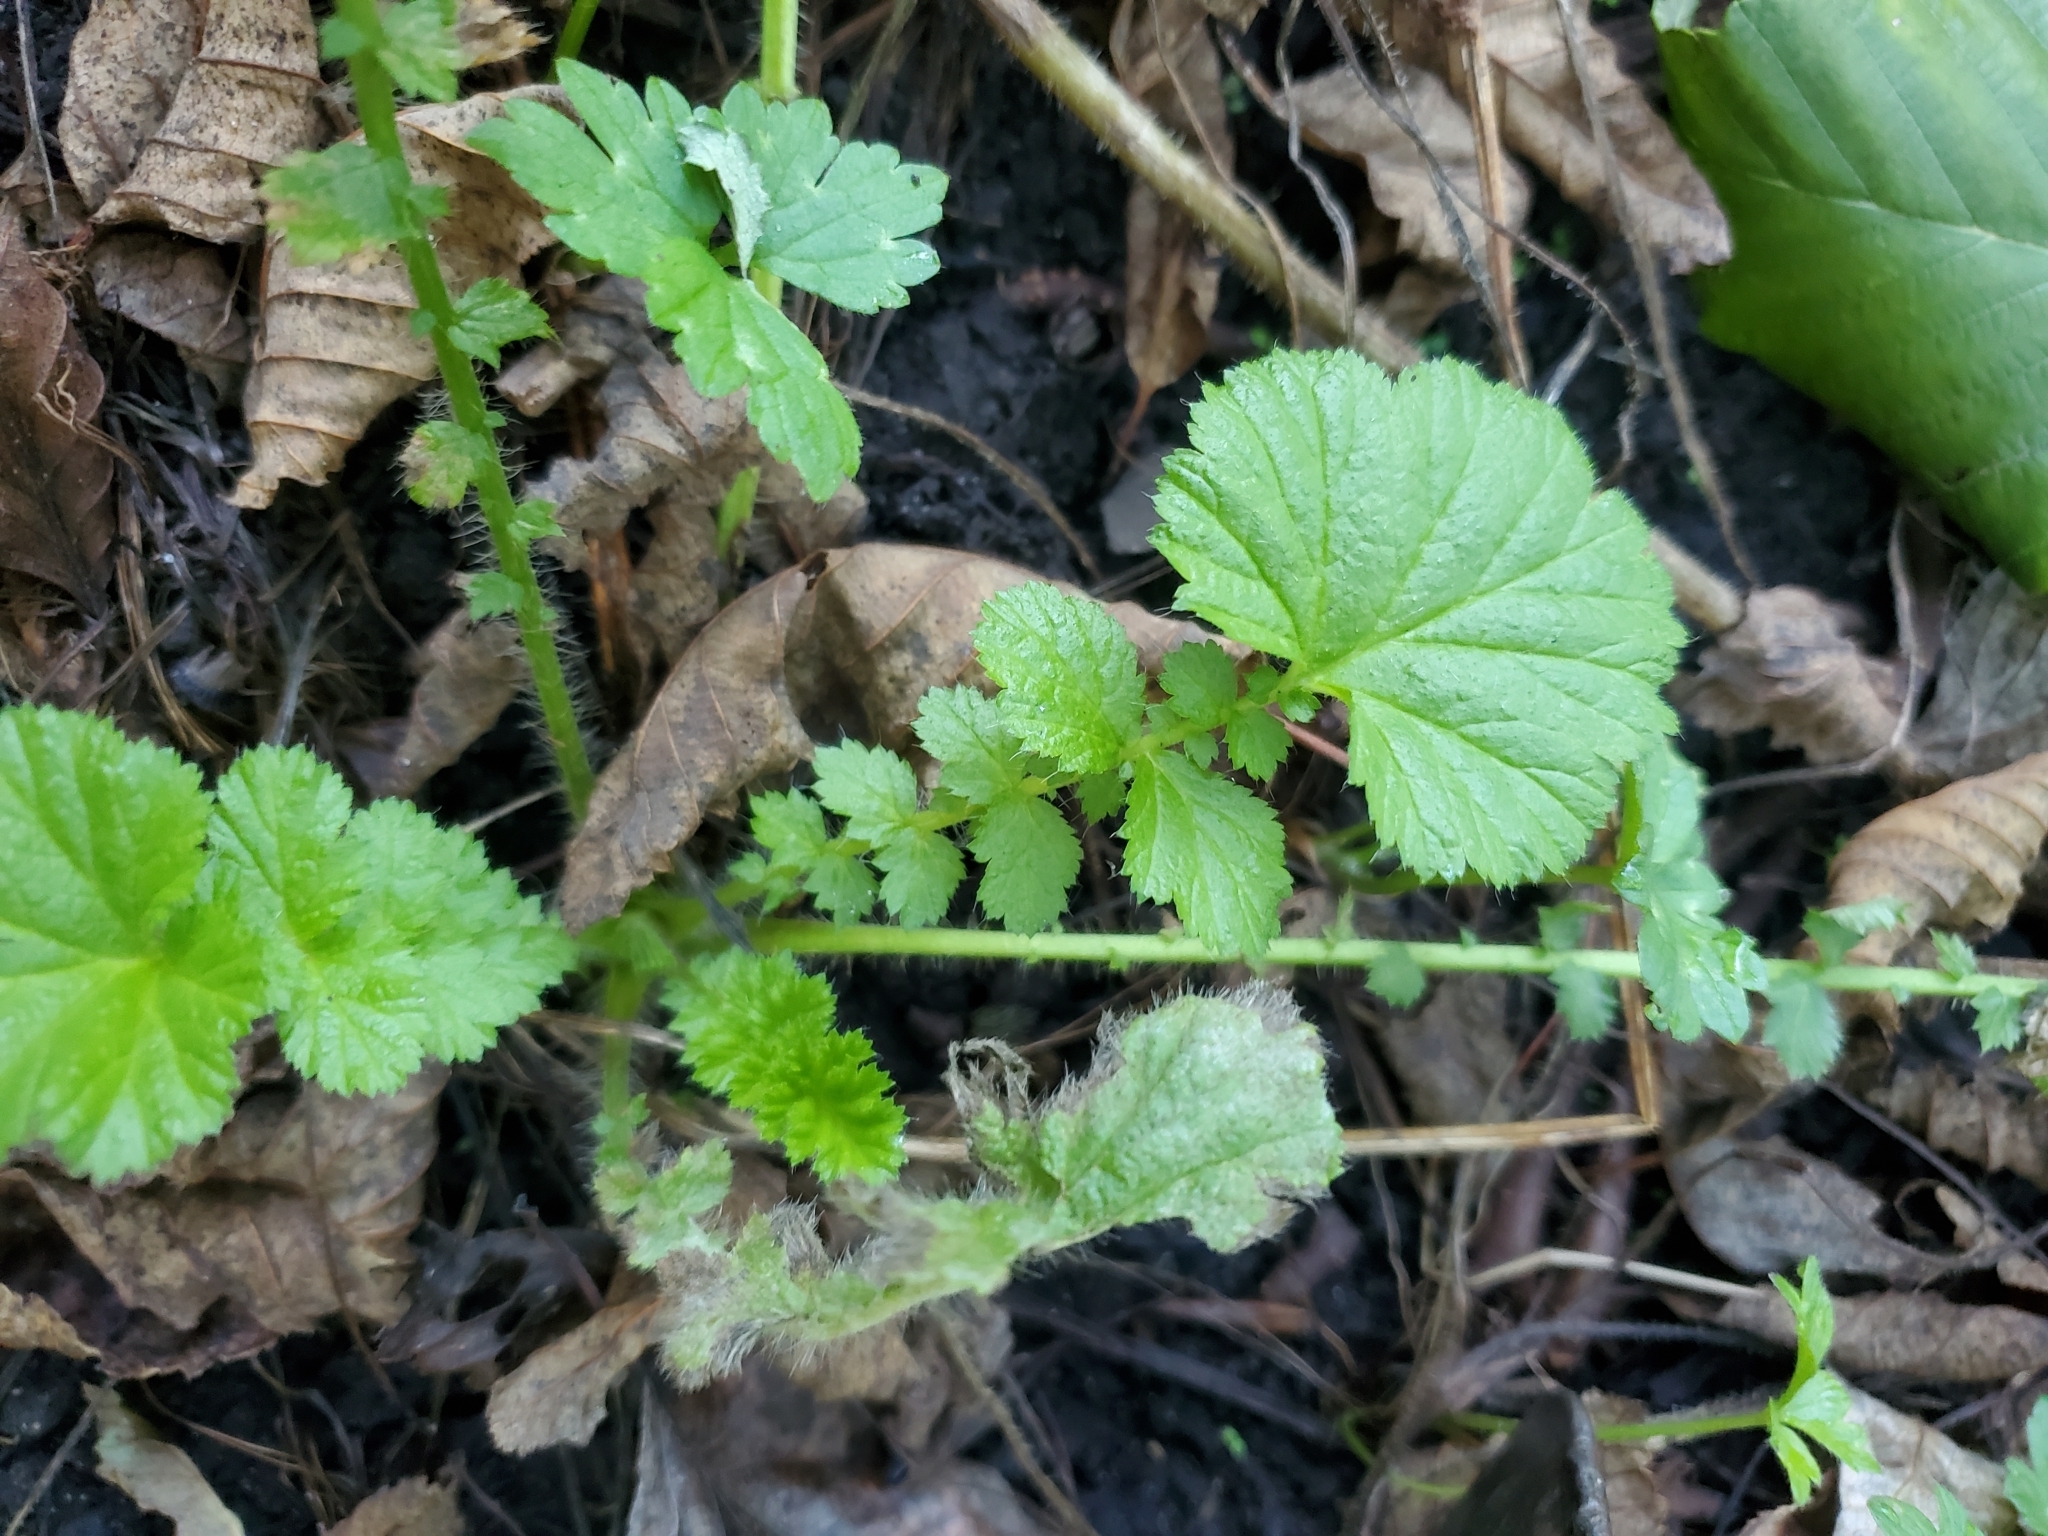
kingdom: Plantae
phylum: Tracheophyta
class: Magnoliopsida
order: Saxifragales
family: Saxifragaceae
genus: Tellima
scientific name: Tellima grandiflora
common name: Fringecups
